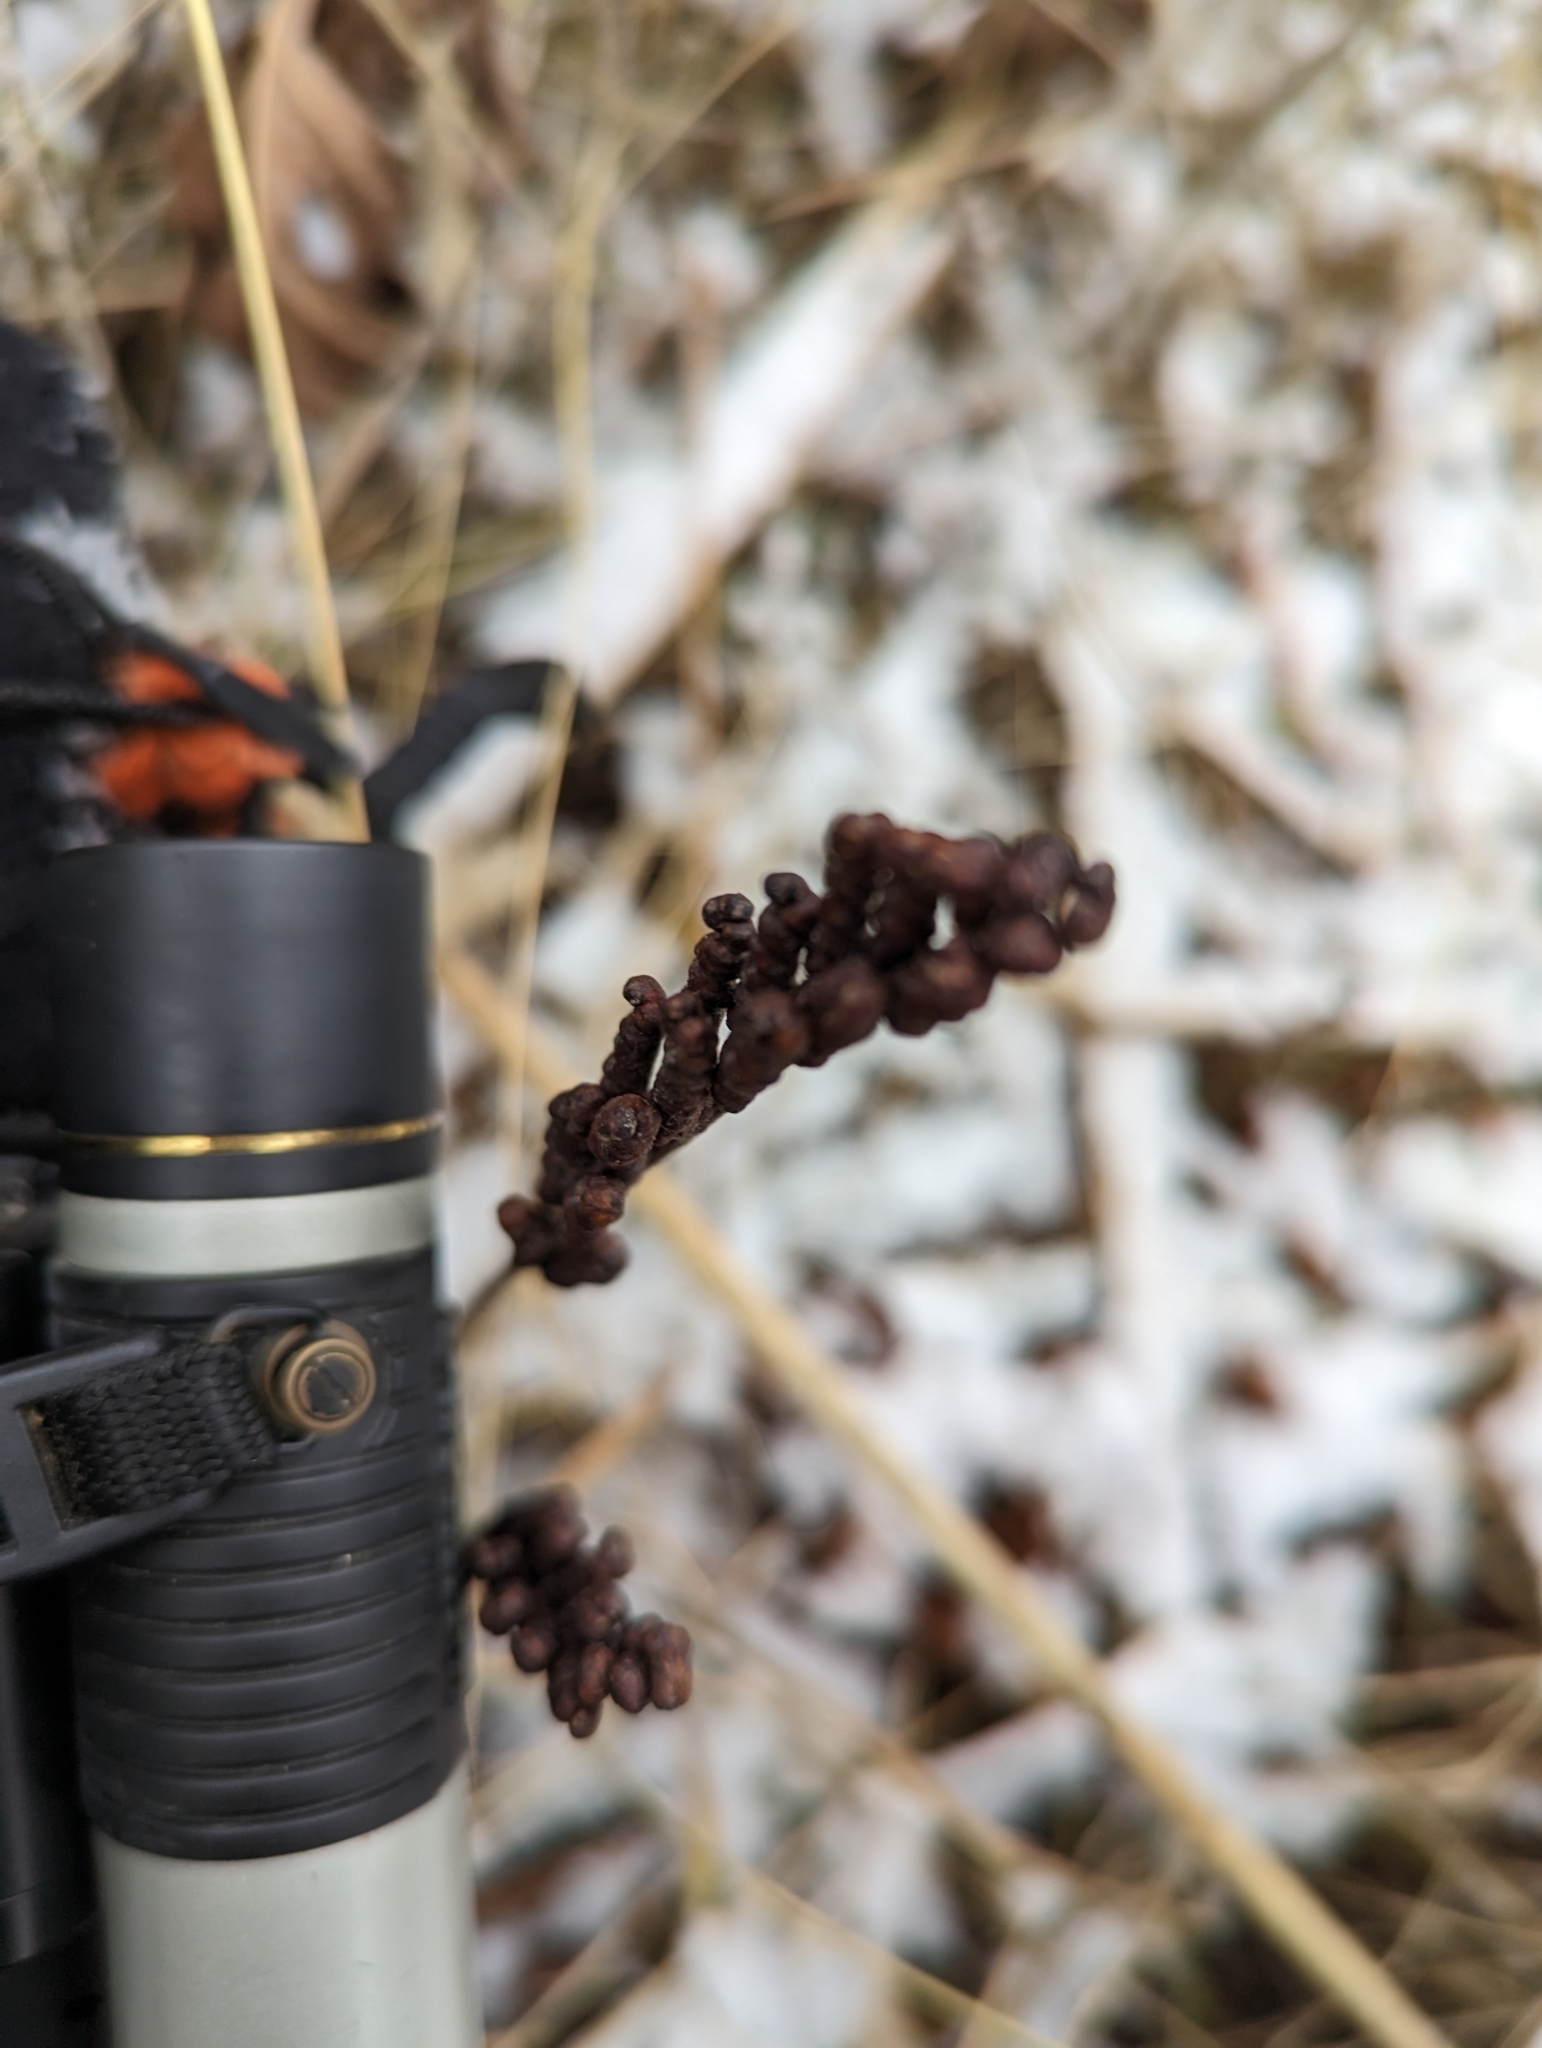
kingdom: Plantae
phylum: Tracheophyta
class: Polypodiopsida
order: Polypodiales
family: Onocleaceae
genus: Onoclea
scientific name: Onoclea sensibilis
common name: Sensitive fern
